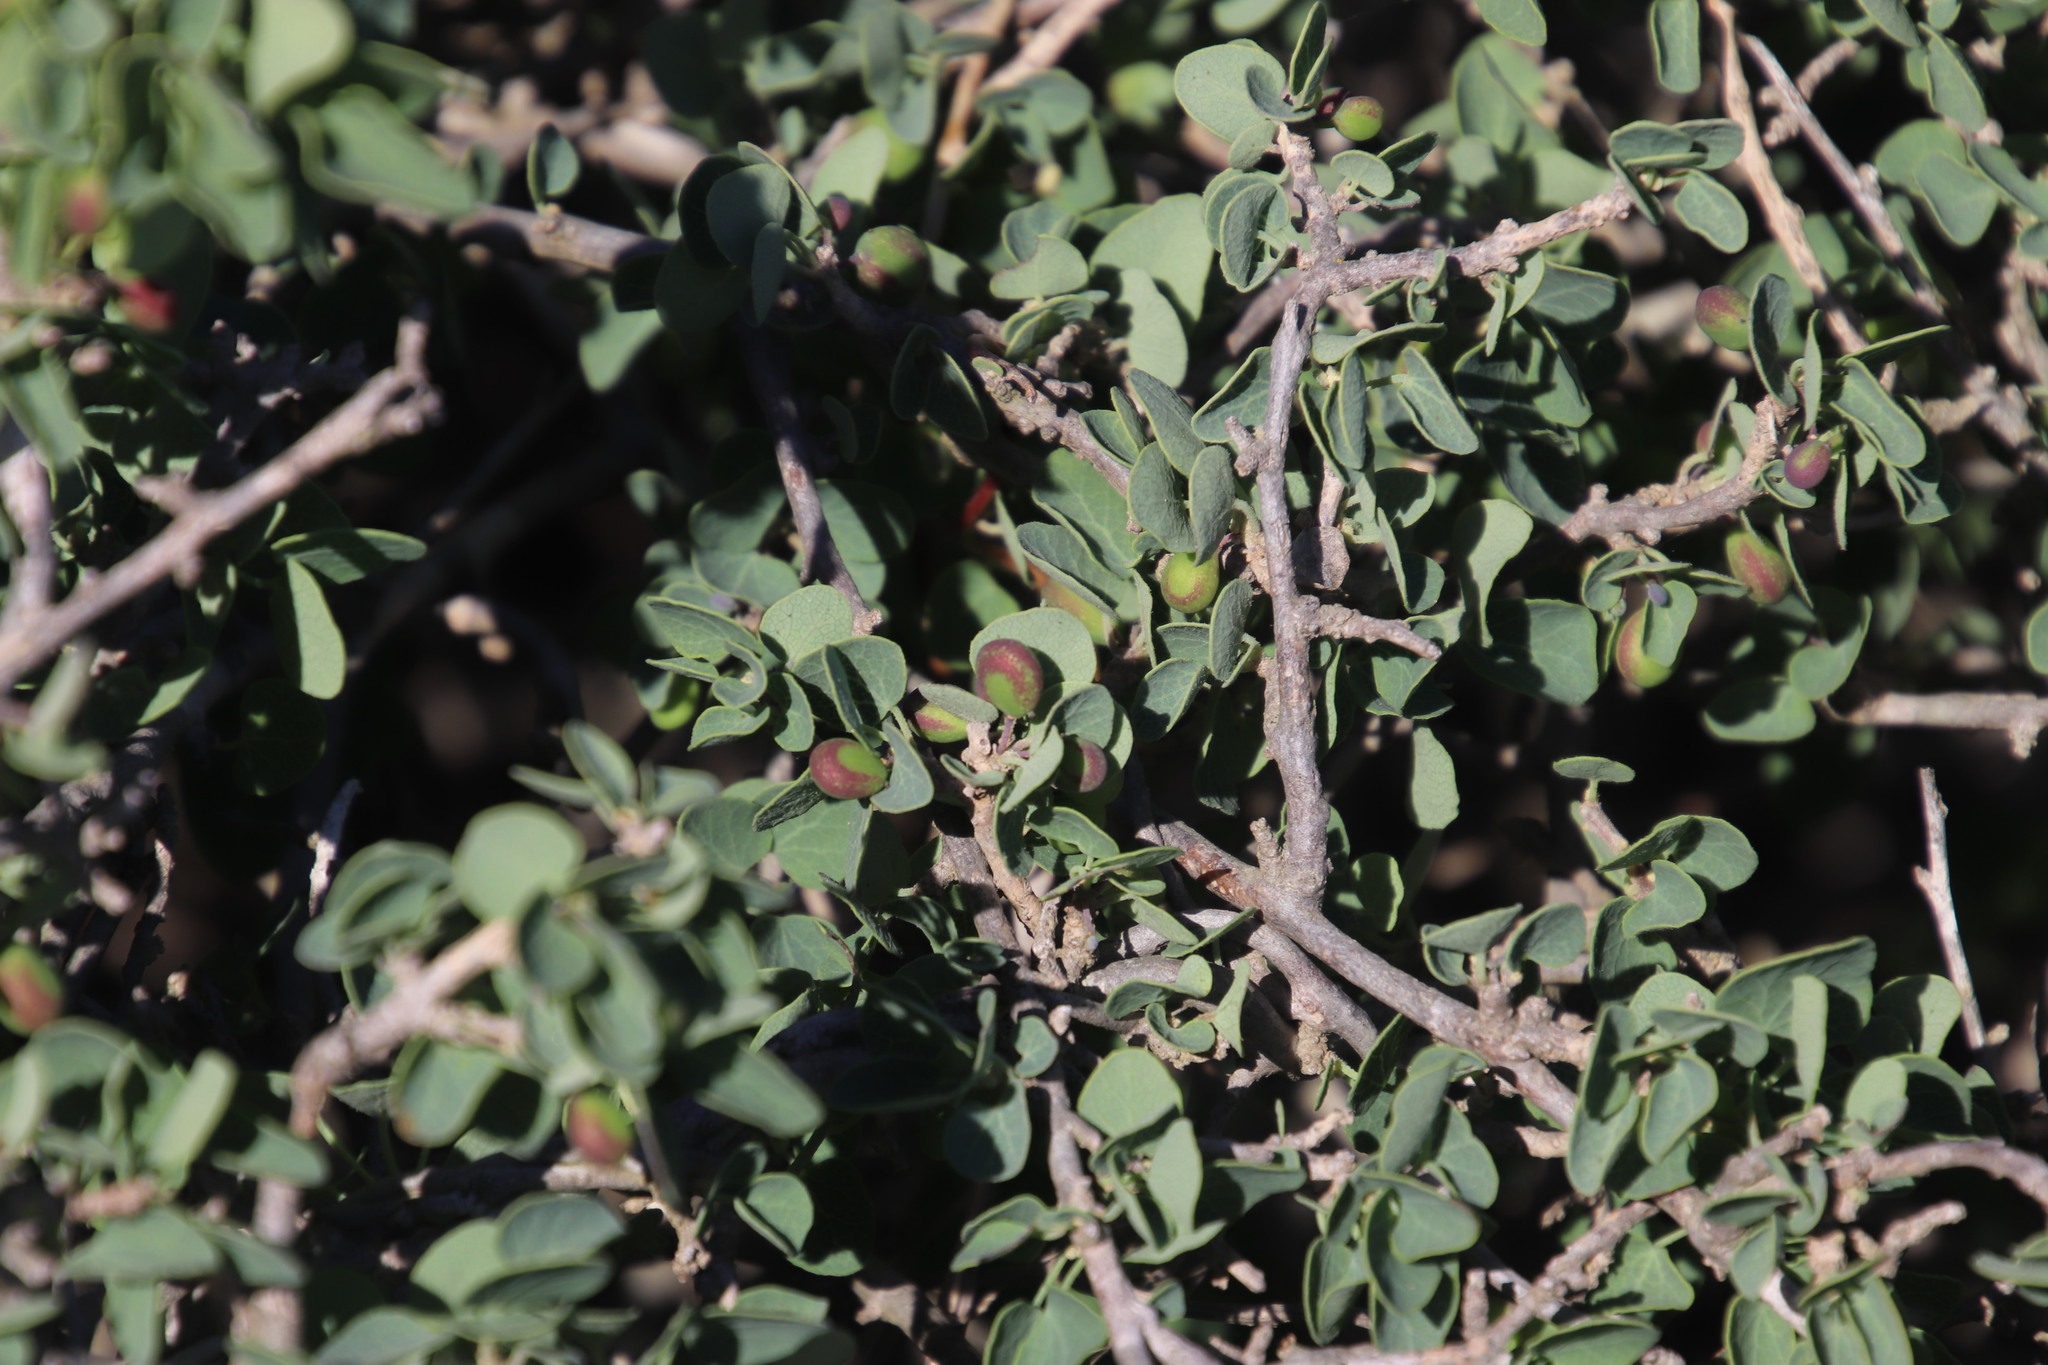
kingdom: Plantae
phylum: Tracheophyta
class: Magnoliopsida
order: Solanales
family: Solanaceae
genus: Lycium
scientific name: Lycium ferocissimum
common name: African boxthorn
